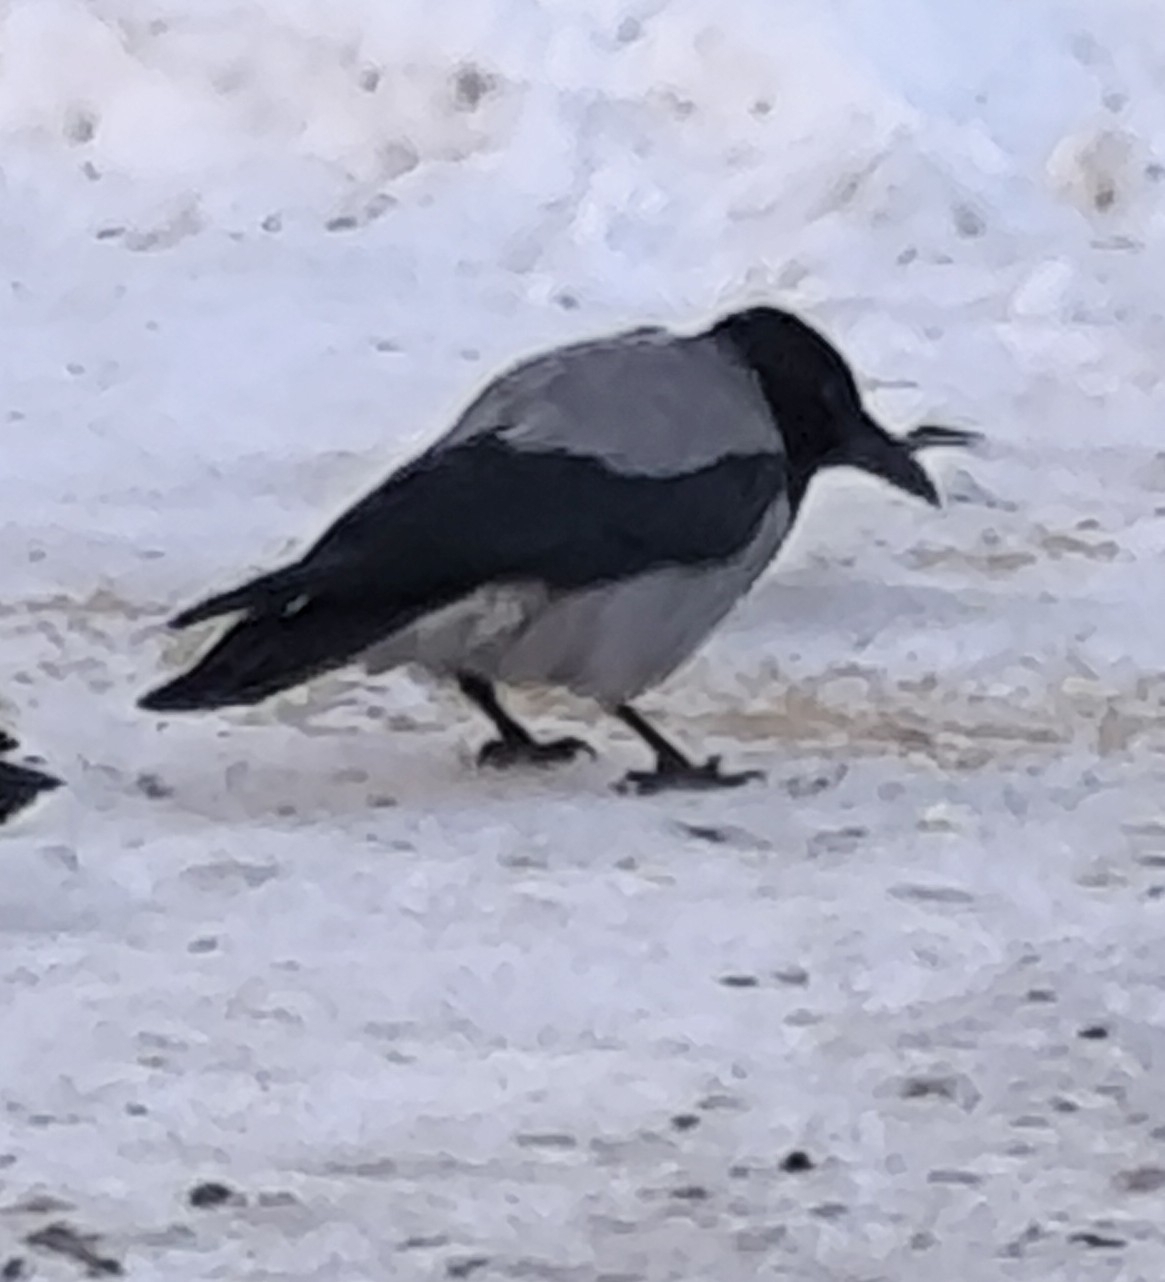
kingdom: Animalia
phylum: Chordata
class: Aves
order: Passeriformes
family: Corvidae
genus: Corvus
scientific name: Corvus cornix
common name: Hooded crow
